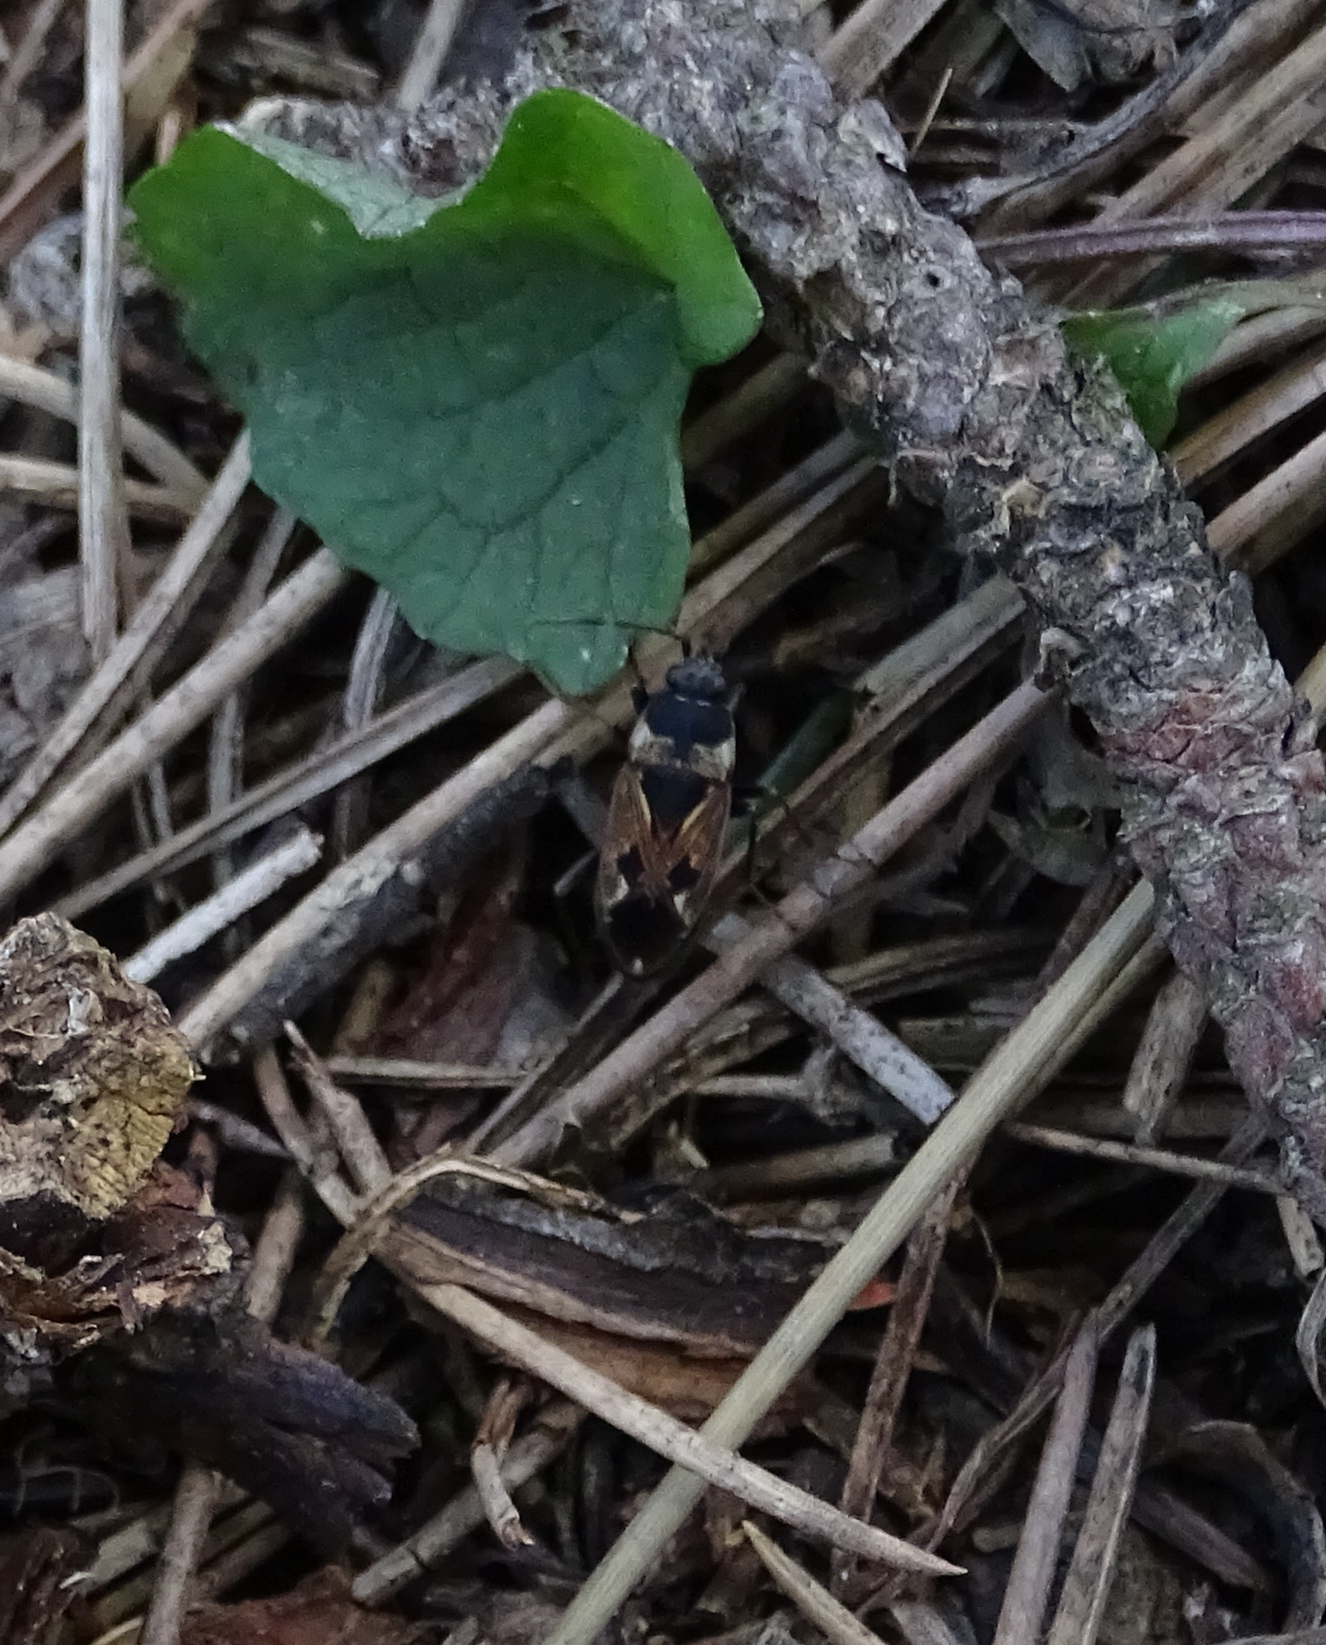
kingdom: Animalia
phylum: Arthropoda
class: Insecta
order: Hemiptera
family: Rhyparochromidae
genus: Rhyparochromus
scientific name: Rhyparochromus vulgaris
